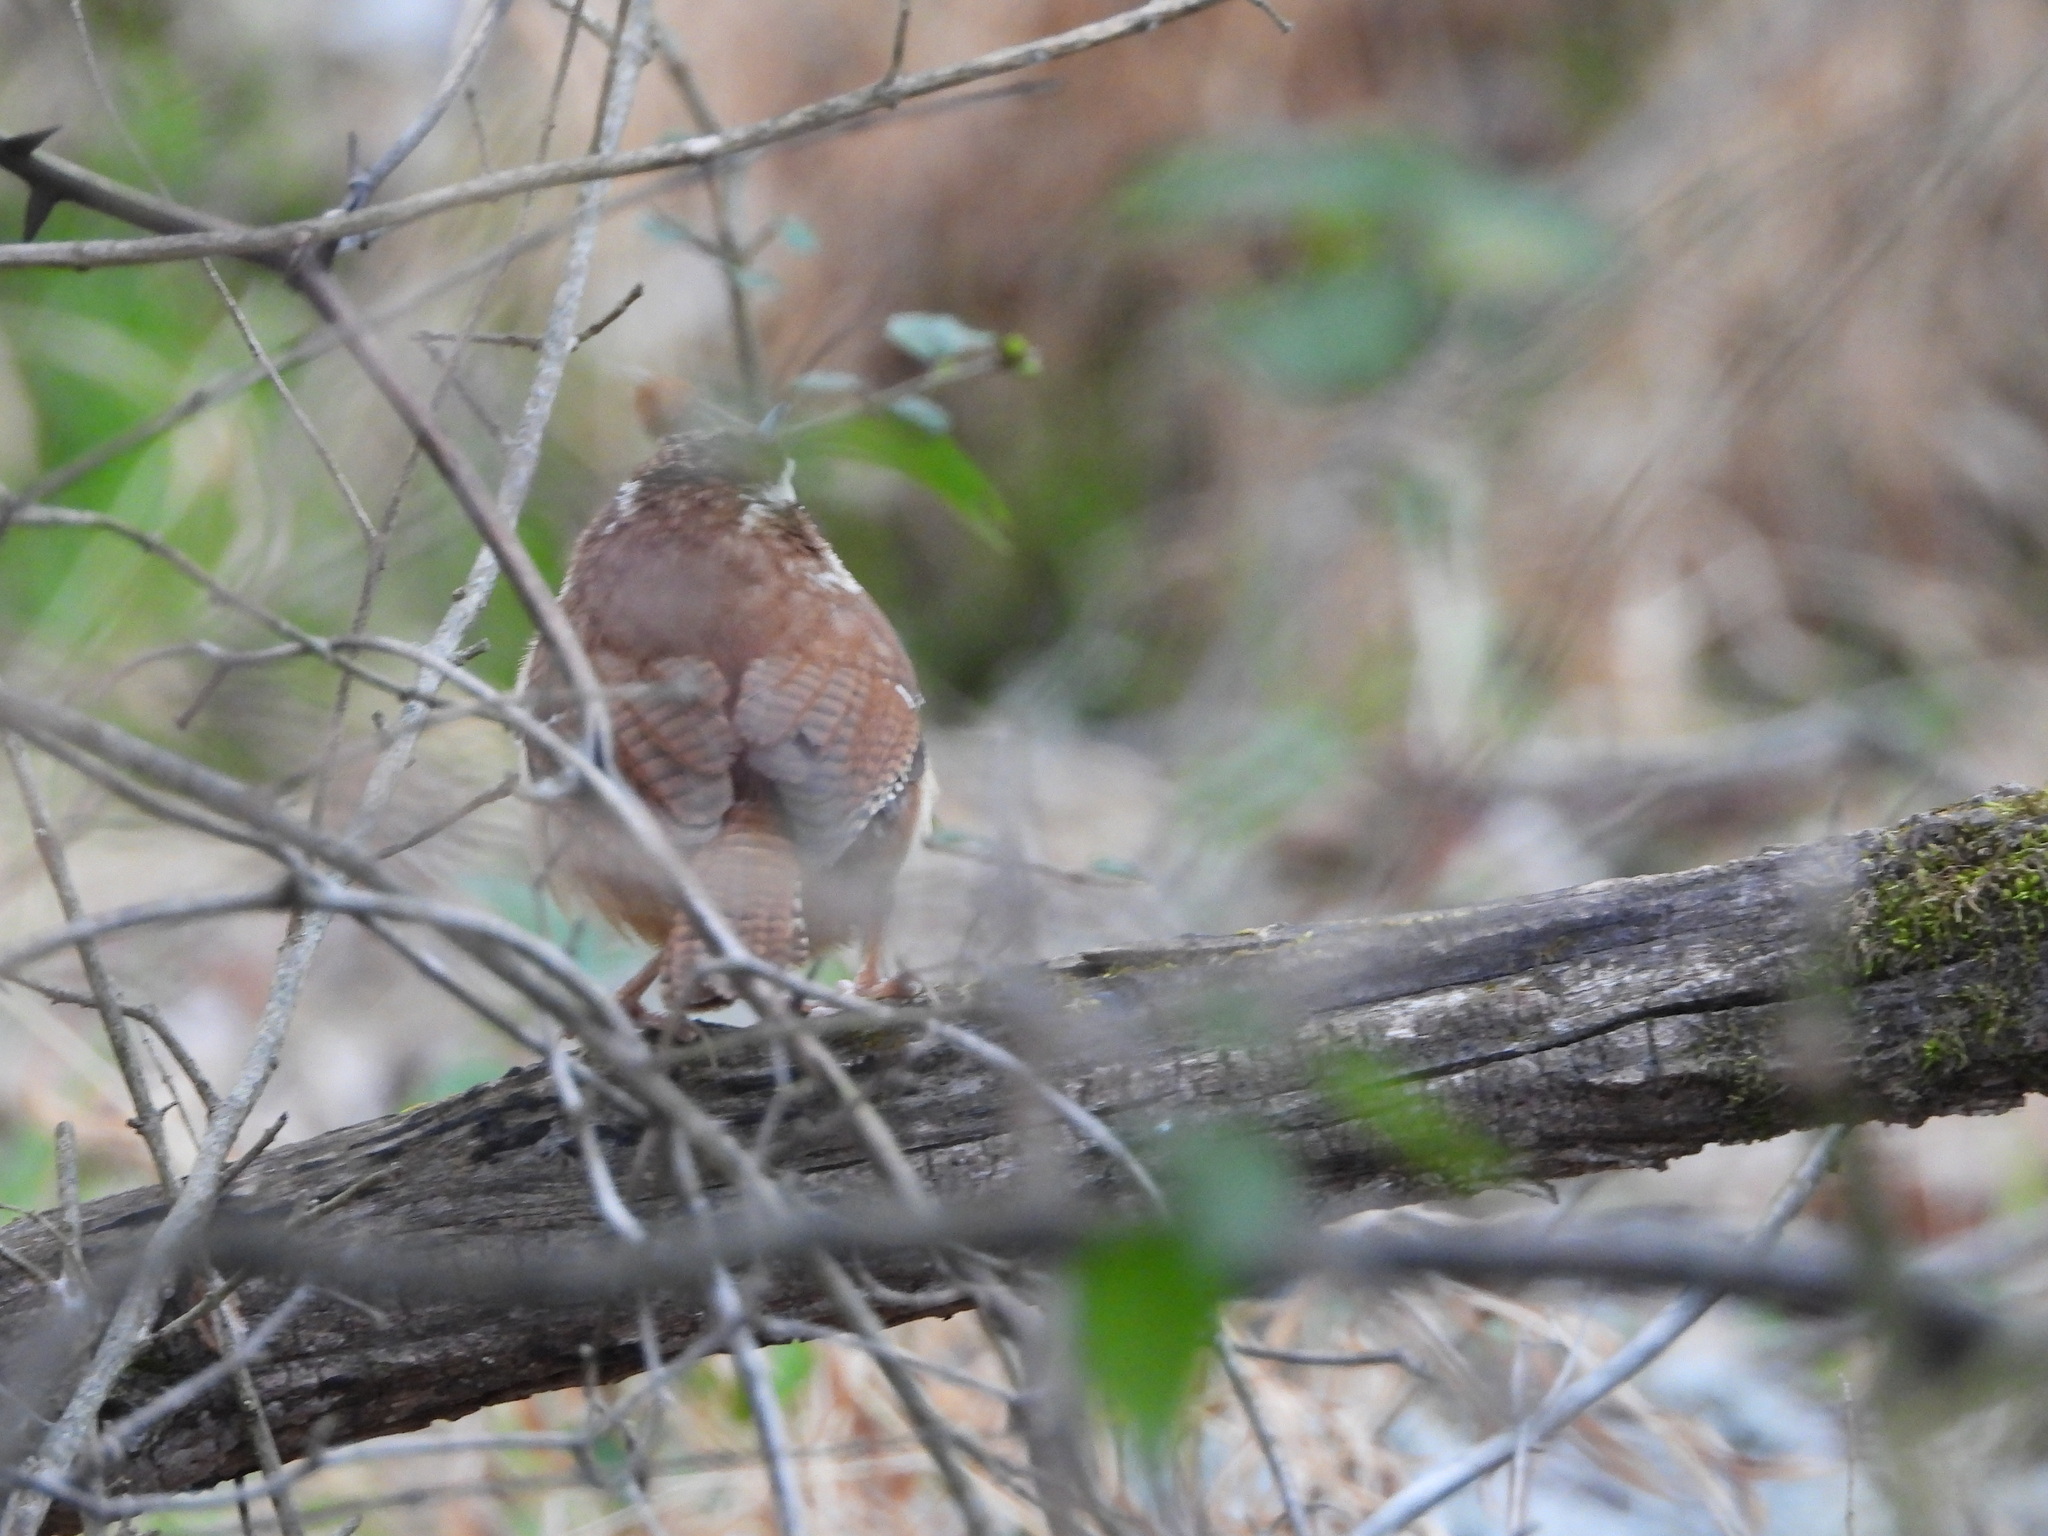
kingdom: Animalia
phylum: Chordata
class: Aves
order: Passeriformes
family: Troglodytidae
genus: Thryothorus
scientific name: Thryothorus ludovicianus
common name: Carolina wren
